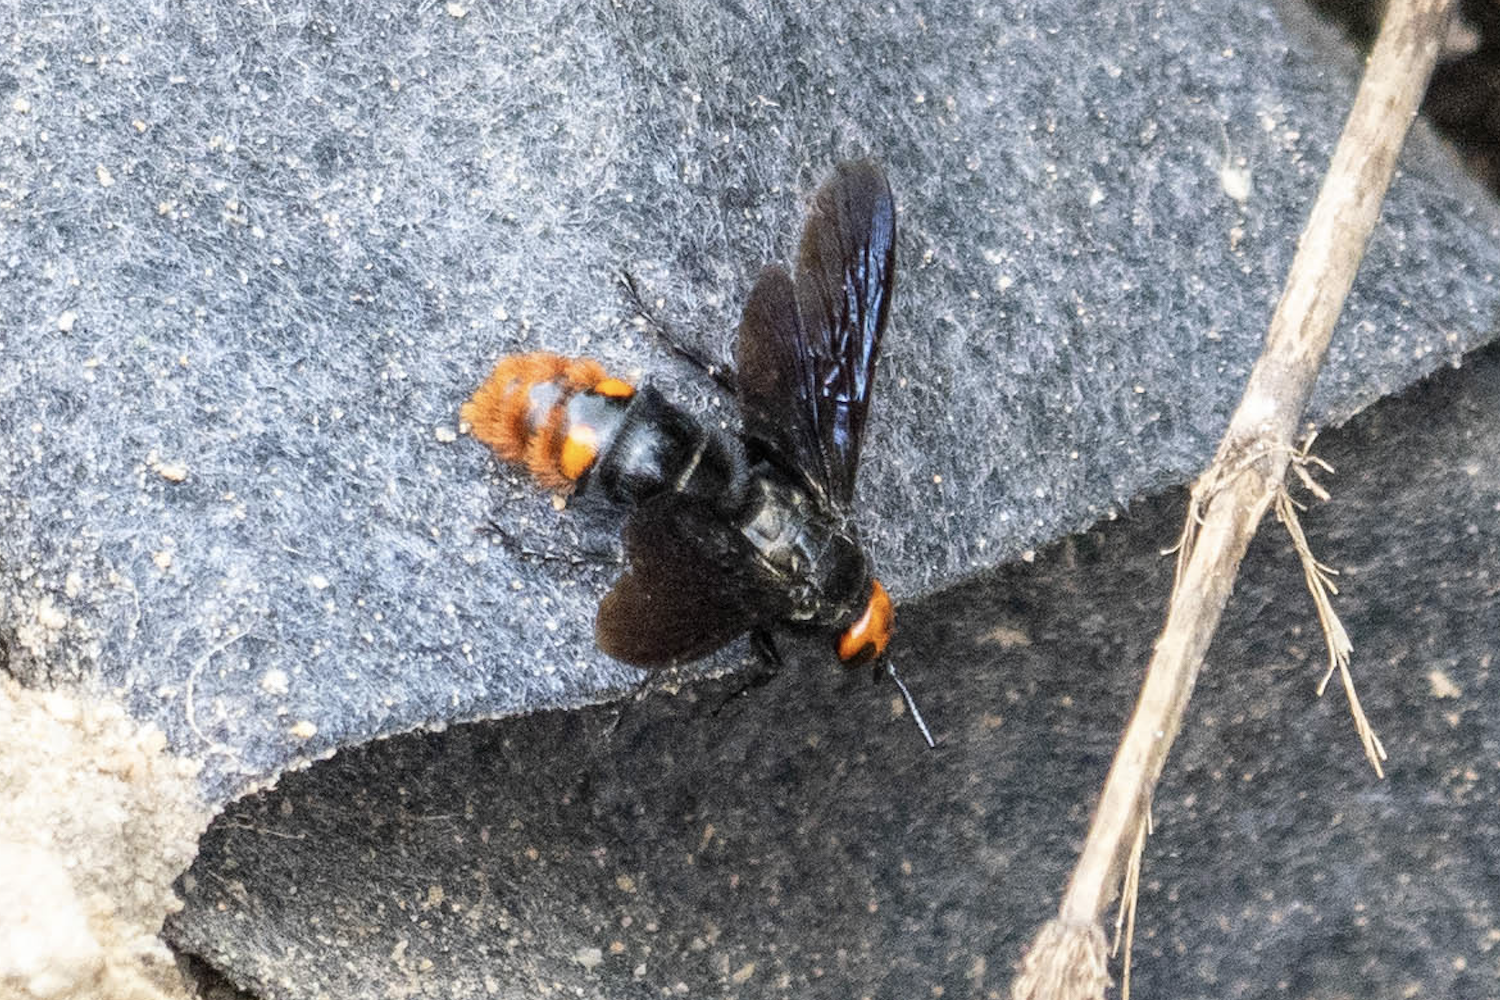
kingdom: Animalia
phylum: Arthropoda
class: Insecta
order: Hymenoptera
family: Scoliidae
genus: Megascolia
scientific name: Megascolia azurea
